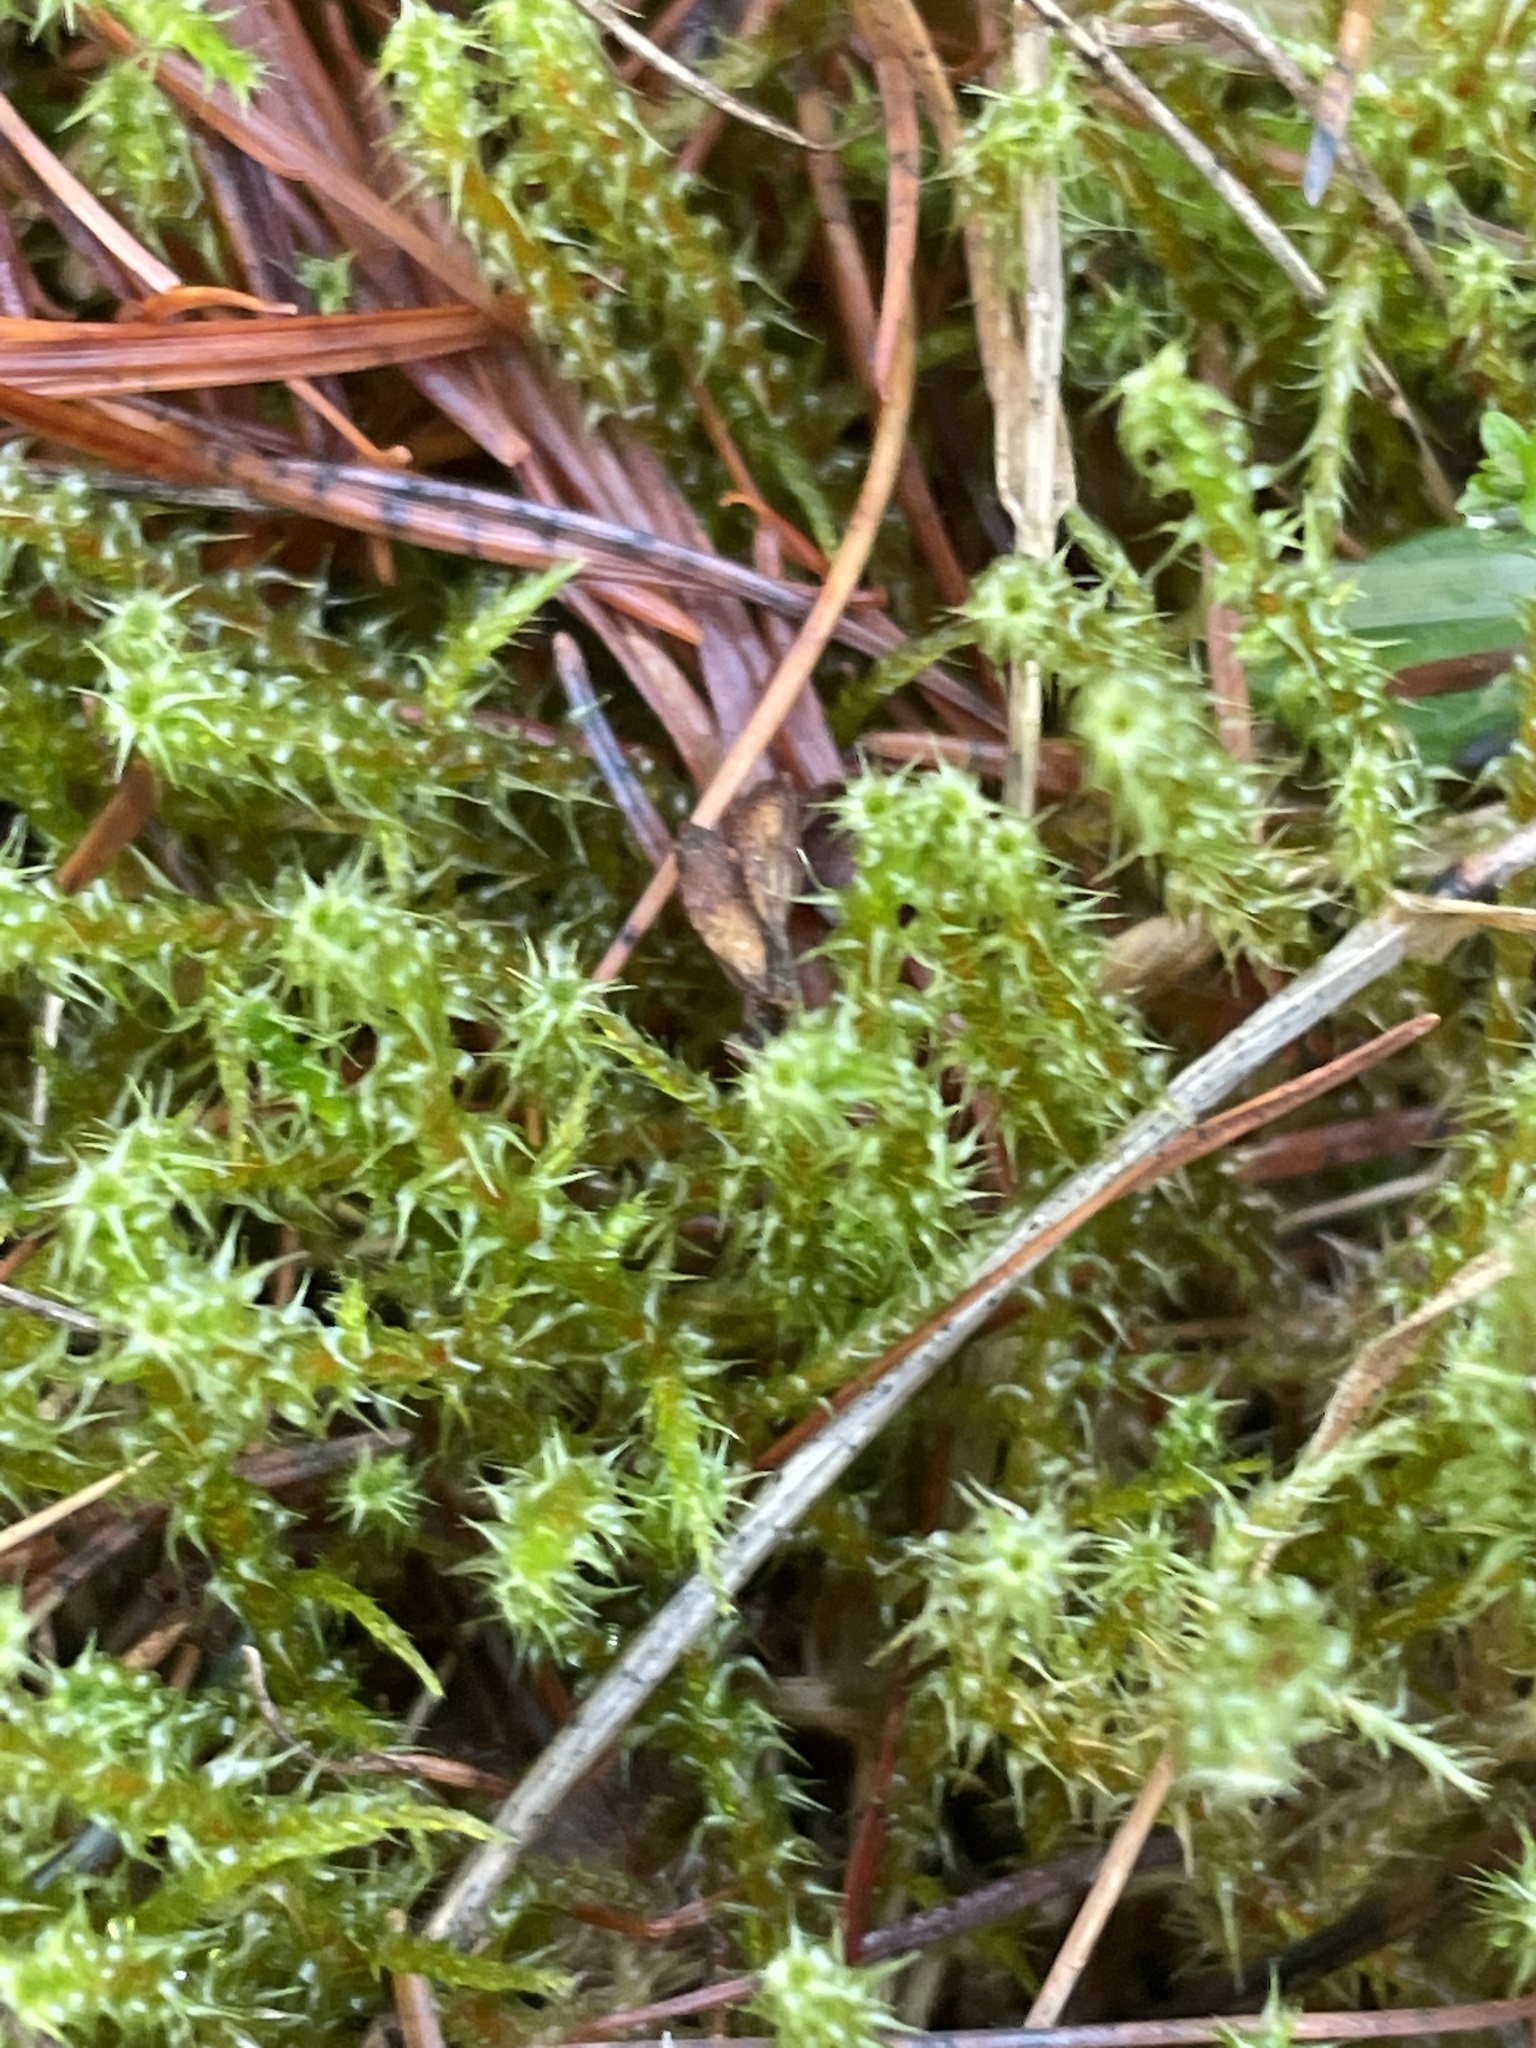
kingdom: Plantae
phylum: Bryophyta
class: Bryopsida
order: Hypnales
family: Hylocomiaceae
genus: Rhytidiadelphus
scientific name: Rhytidiadelphus squarrosus
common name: Springy turf-moss
